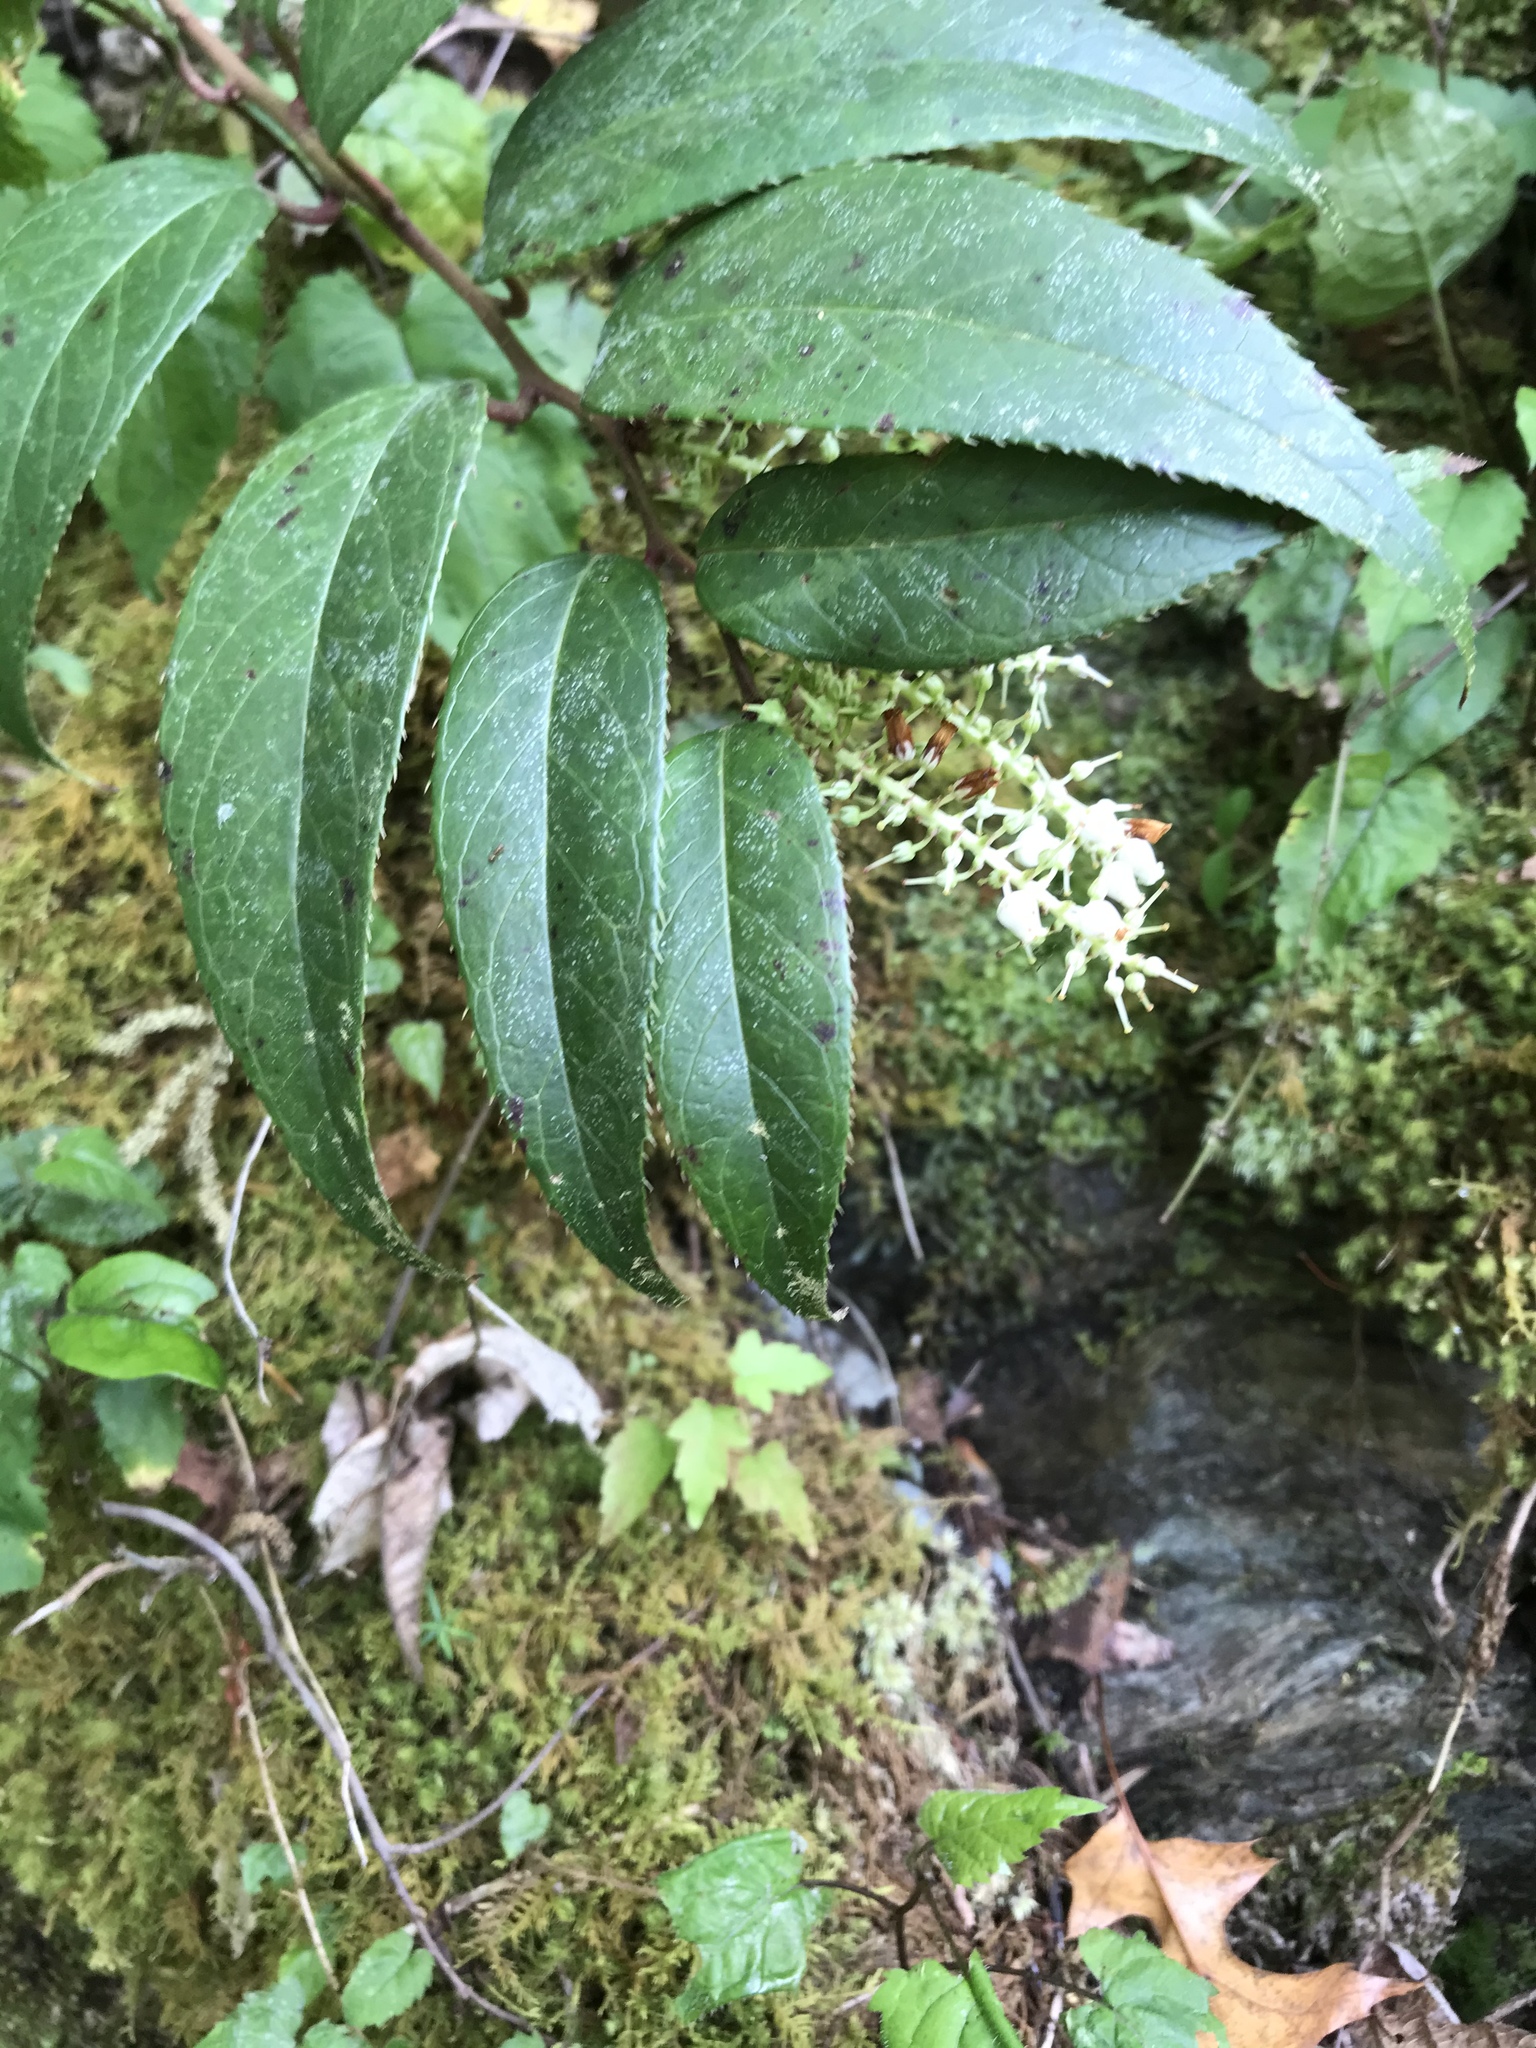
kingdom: Plantae
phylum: Tracheophyta
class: Magnoliopsida
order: Ericales
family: Ericaceae
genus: Leucothoe
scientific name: Leucothoe fontanesiana
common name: Fetterbush
